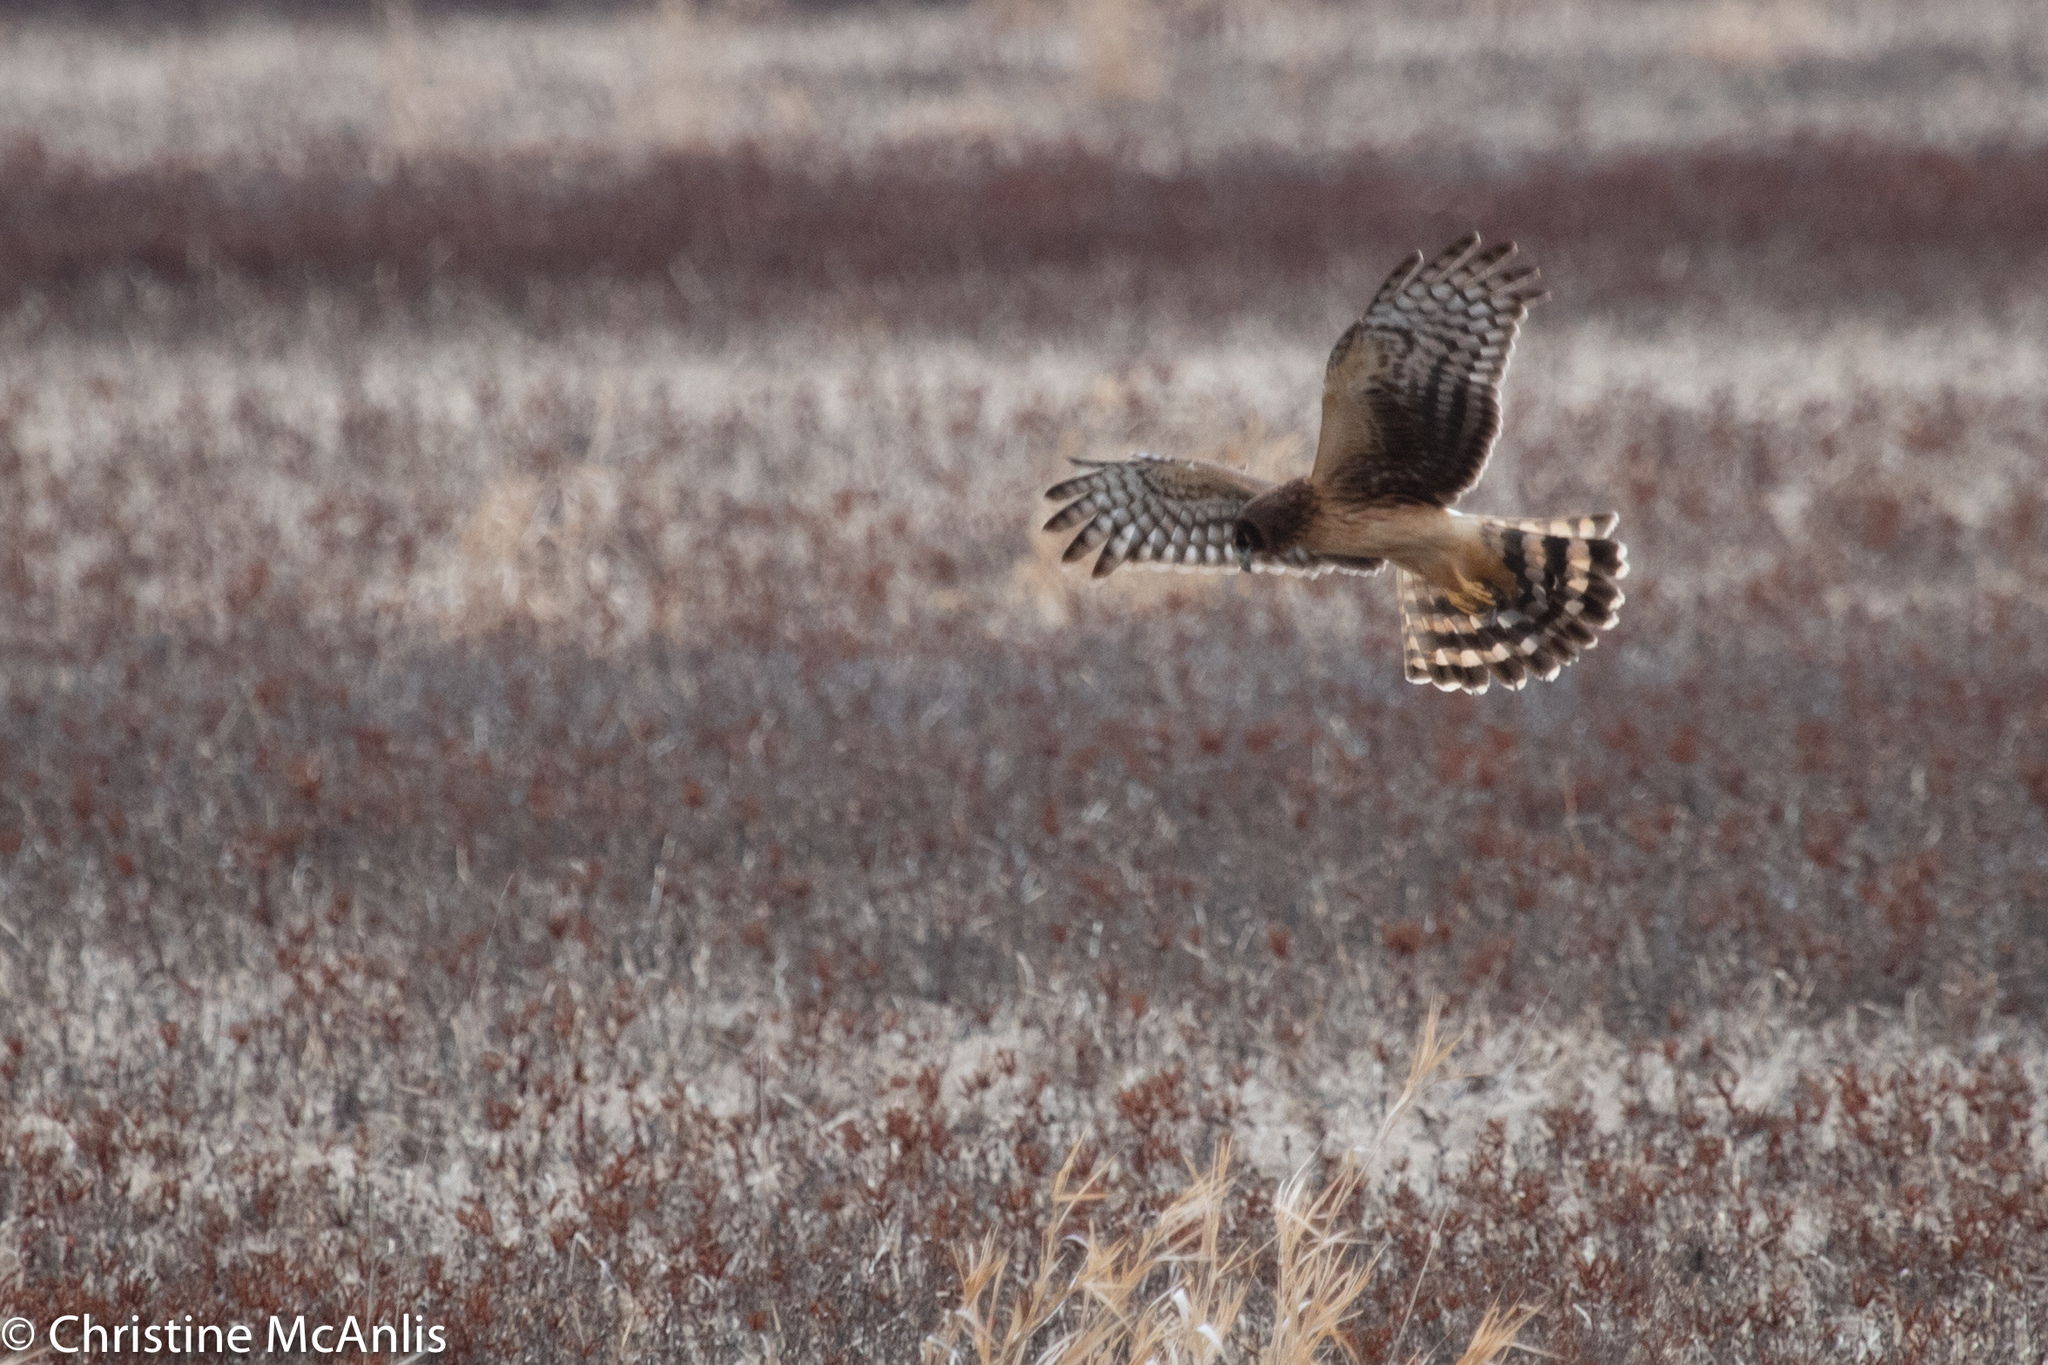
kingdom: Animalia
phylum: Chordata
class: Aves
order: Accipitriformes
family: Accipitridae
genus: Circus
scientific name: Circus cyaneus
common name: Hen harrier
